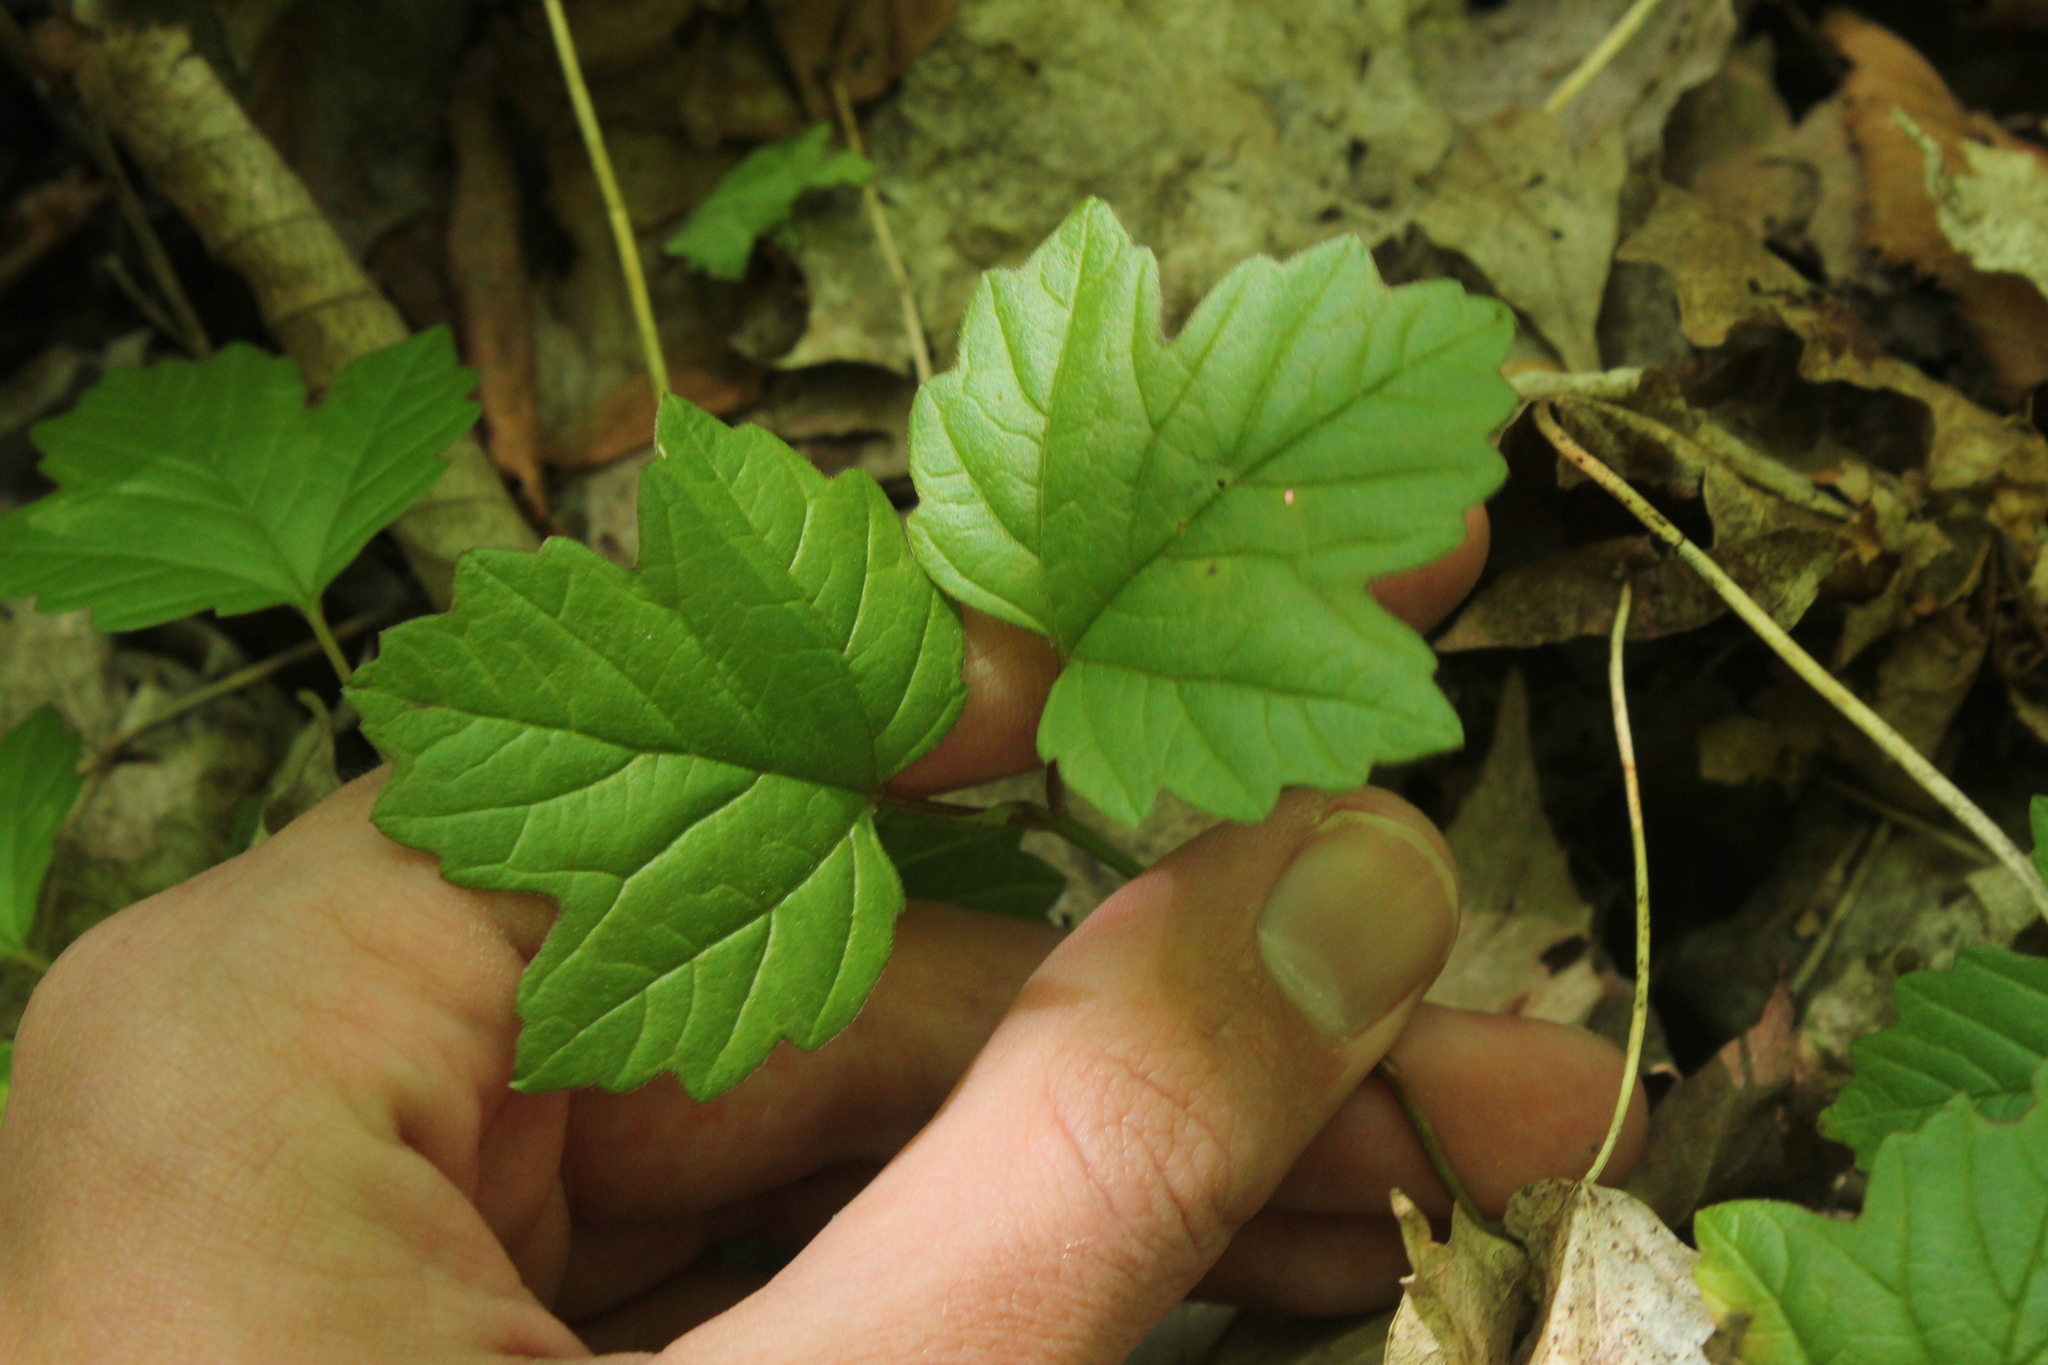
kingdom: Plantae
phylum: Tracheophyta
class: Magnoliopsida
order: Dipsacales
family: Viburnaceae
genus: Viburnum
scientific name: Viburnum opulus
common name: Guelder-rose
